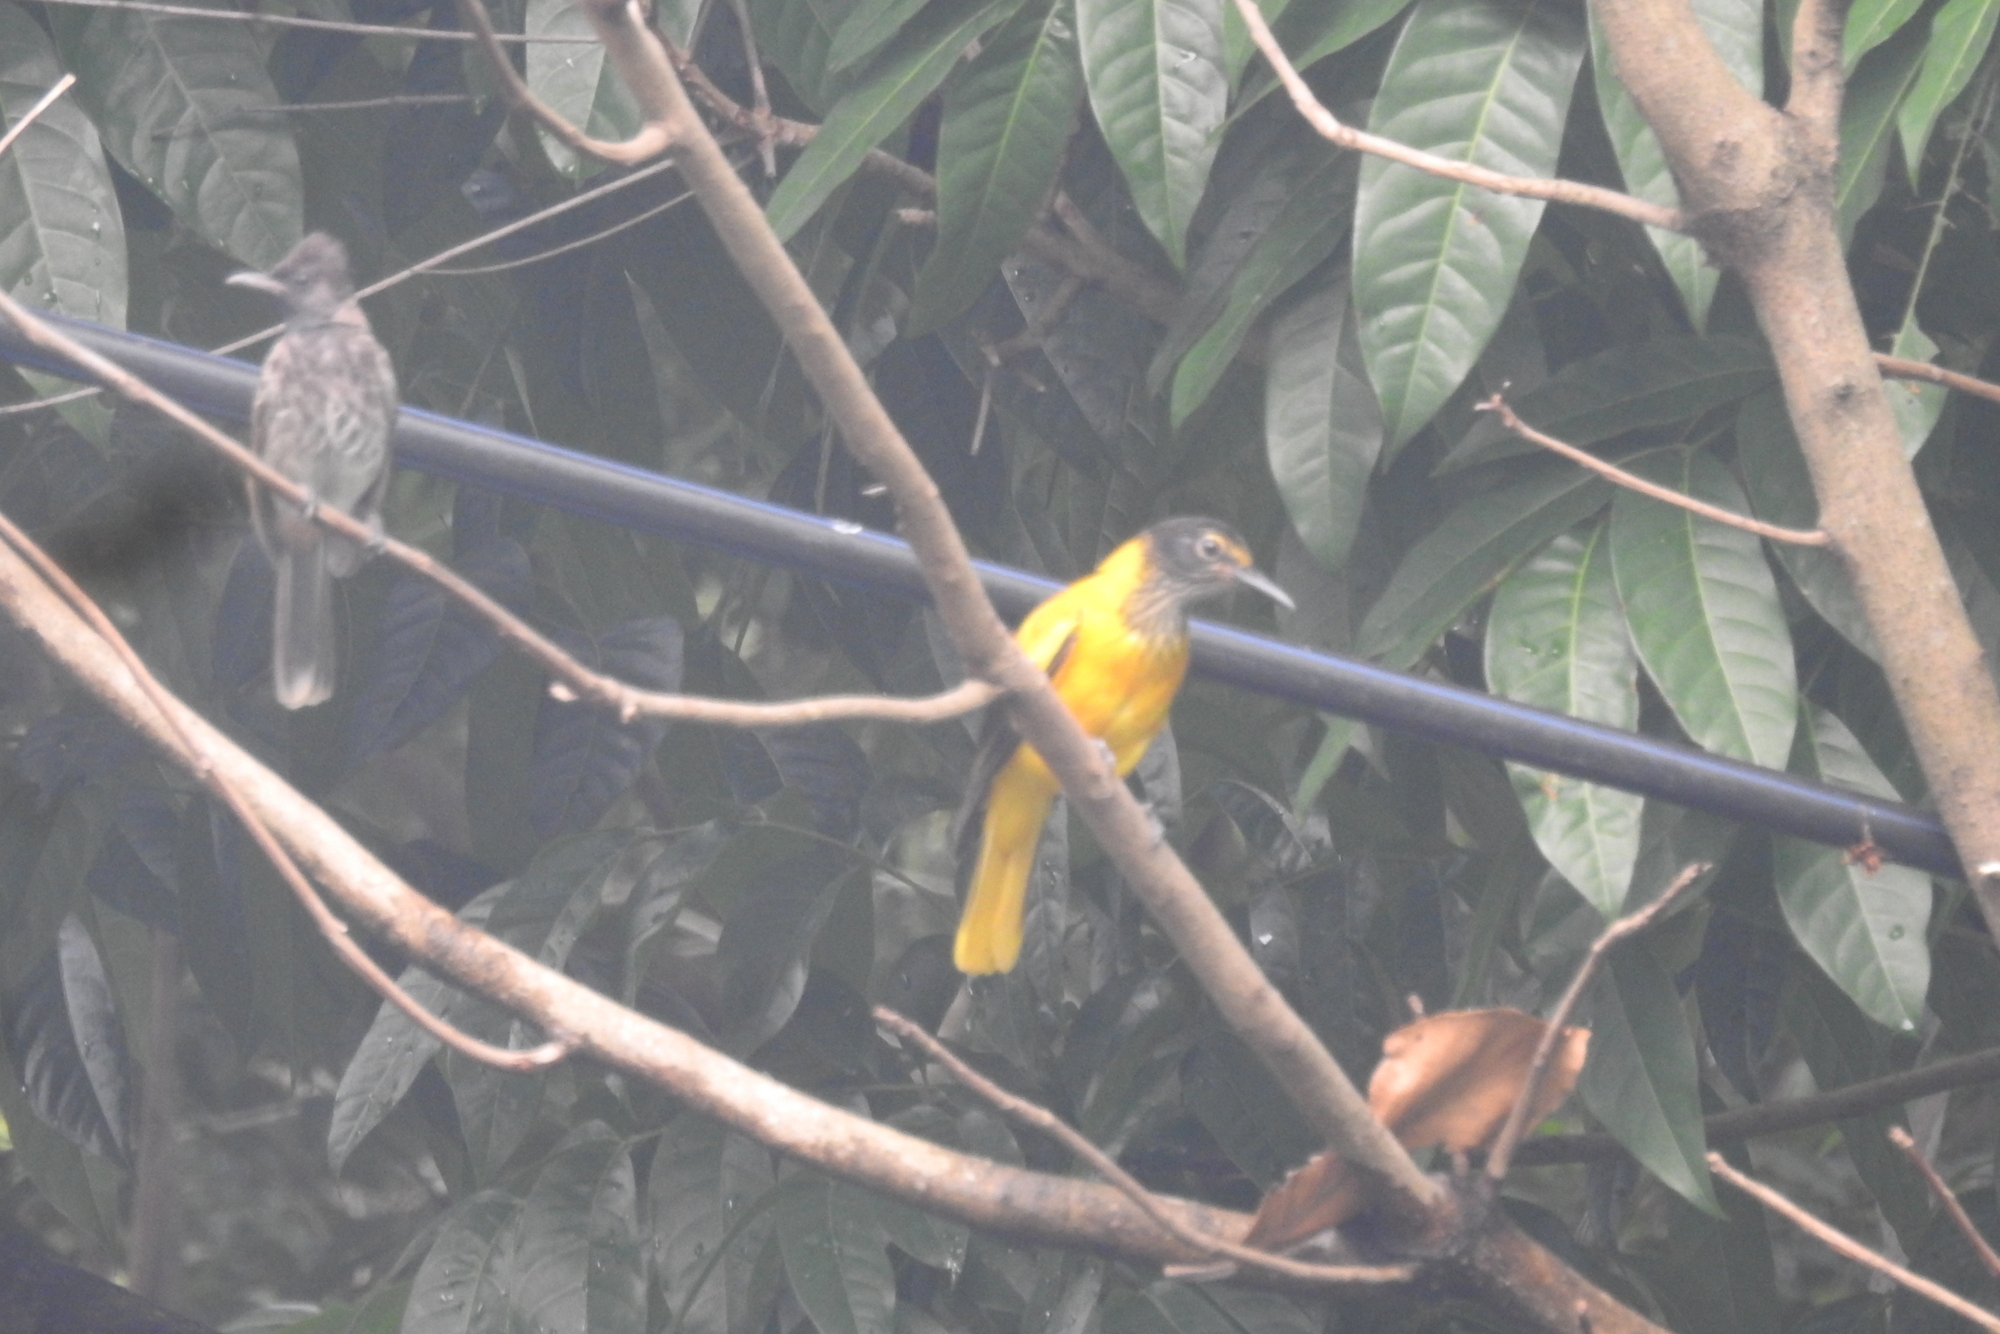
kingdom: Animalia
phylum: Chordata
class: Aves
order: Passeriformes
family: Oriolidae
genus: Oriolus
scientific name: Oriolus xanthornus
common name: Black-hooded oriole
